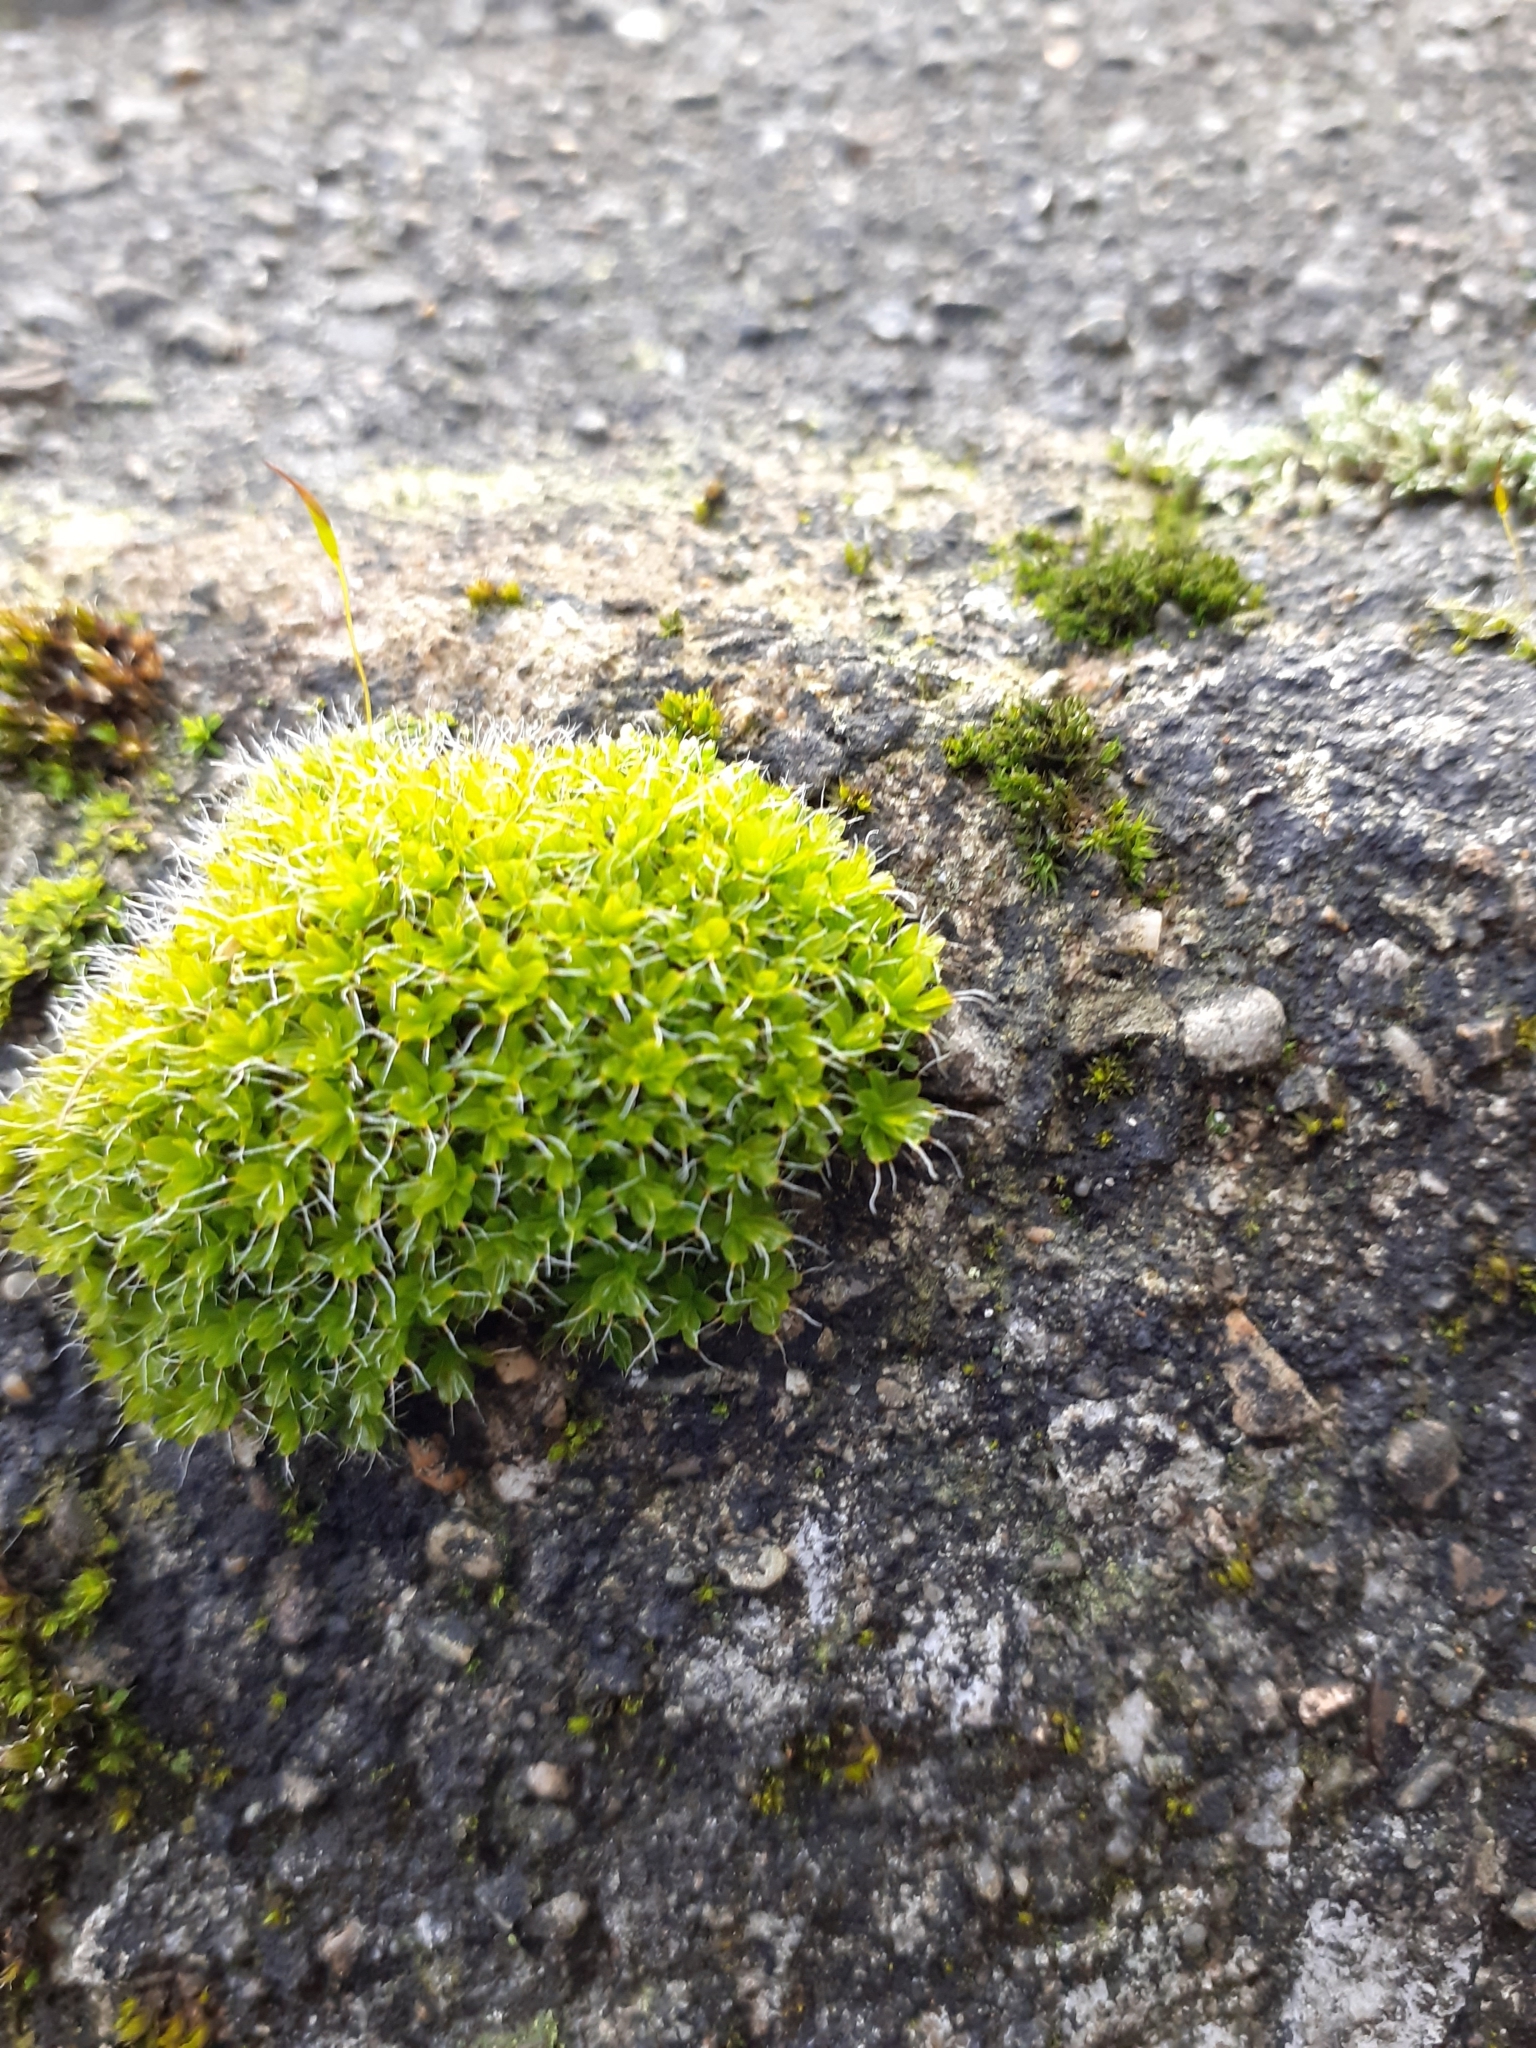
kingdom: Plantae
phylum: Bryophyta
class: Bryopsida
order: Pottiales
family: Pottiaceae
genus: Syntrichia
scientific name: Syntrichia montana
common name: Intermediate screw-moss
